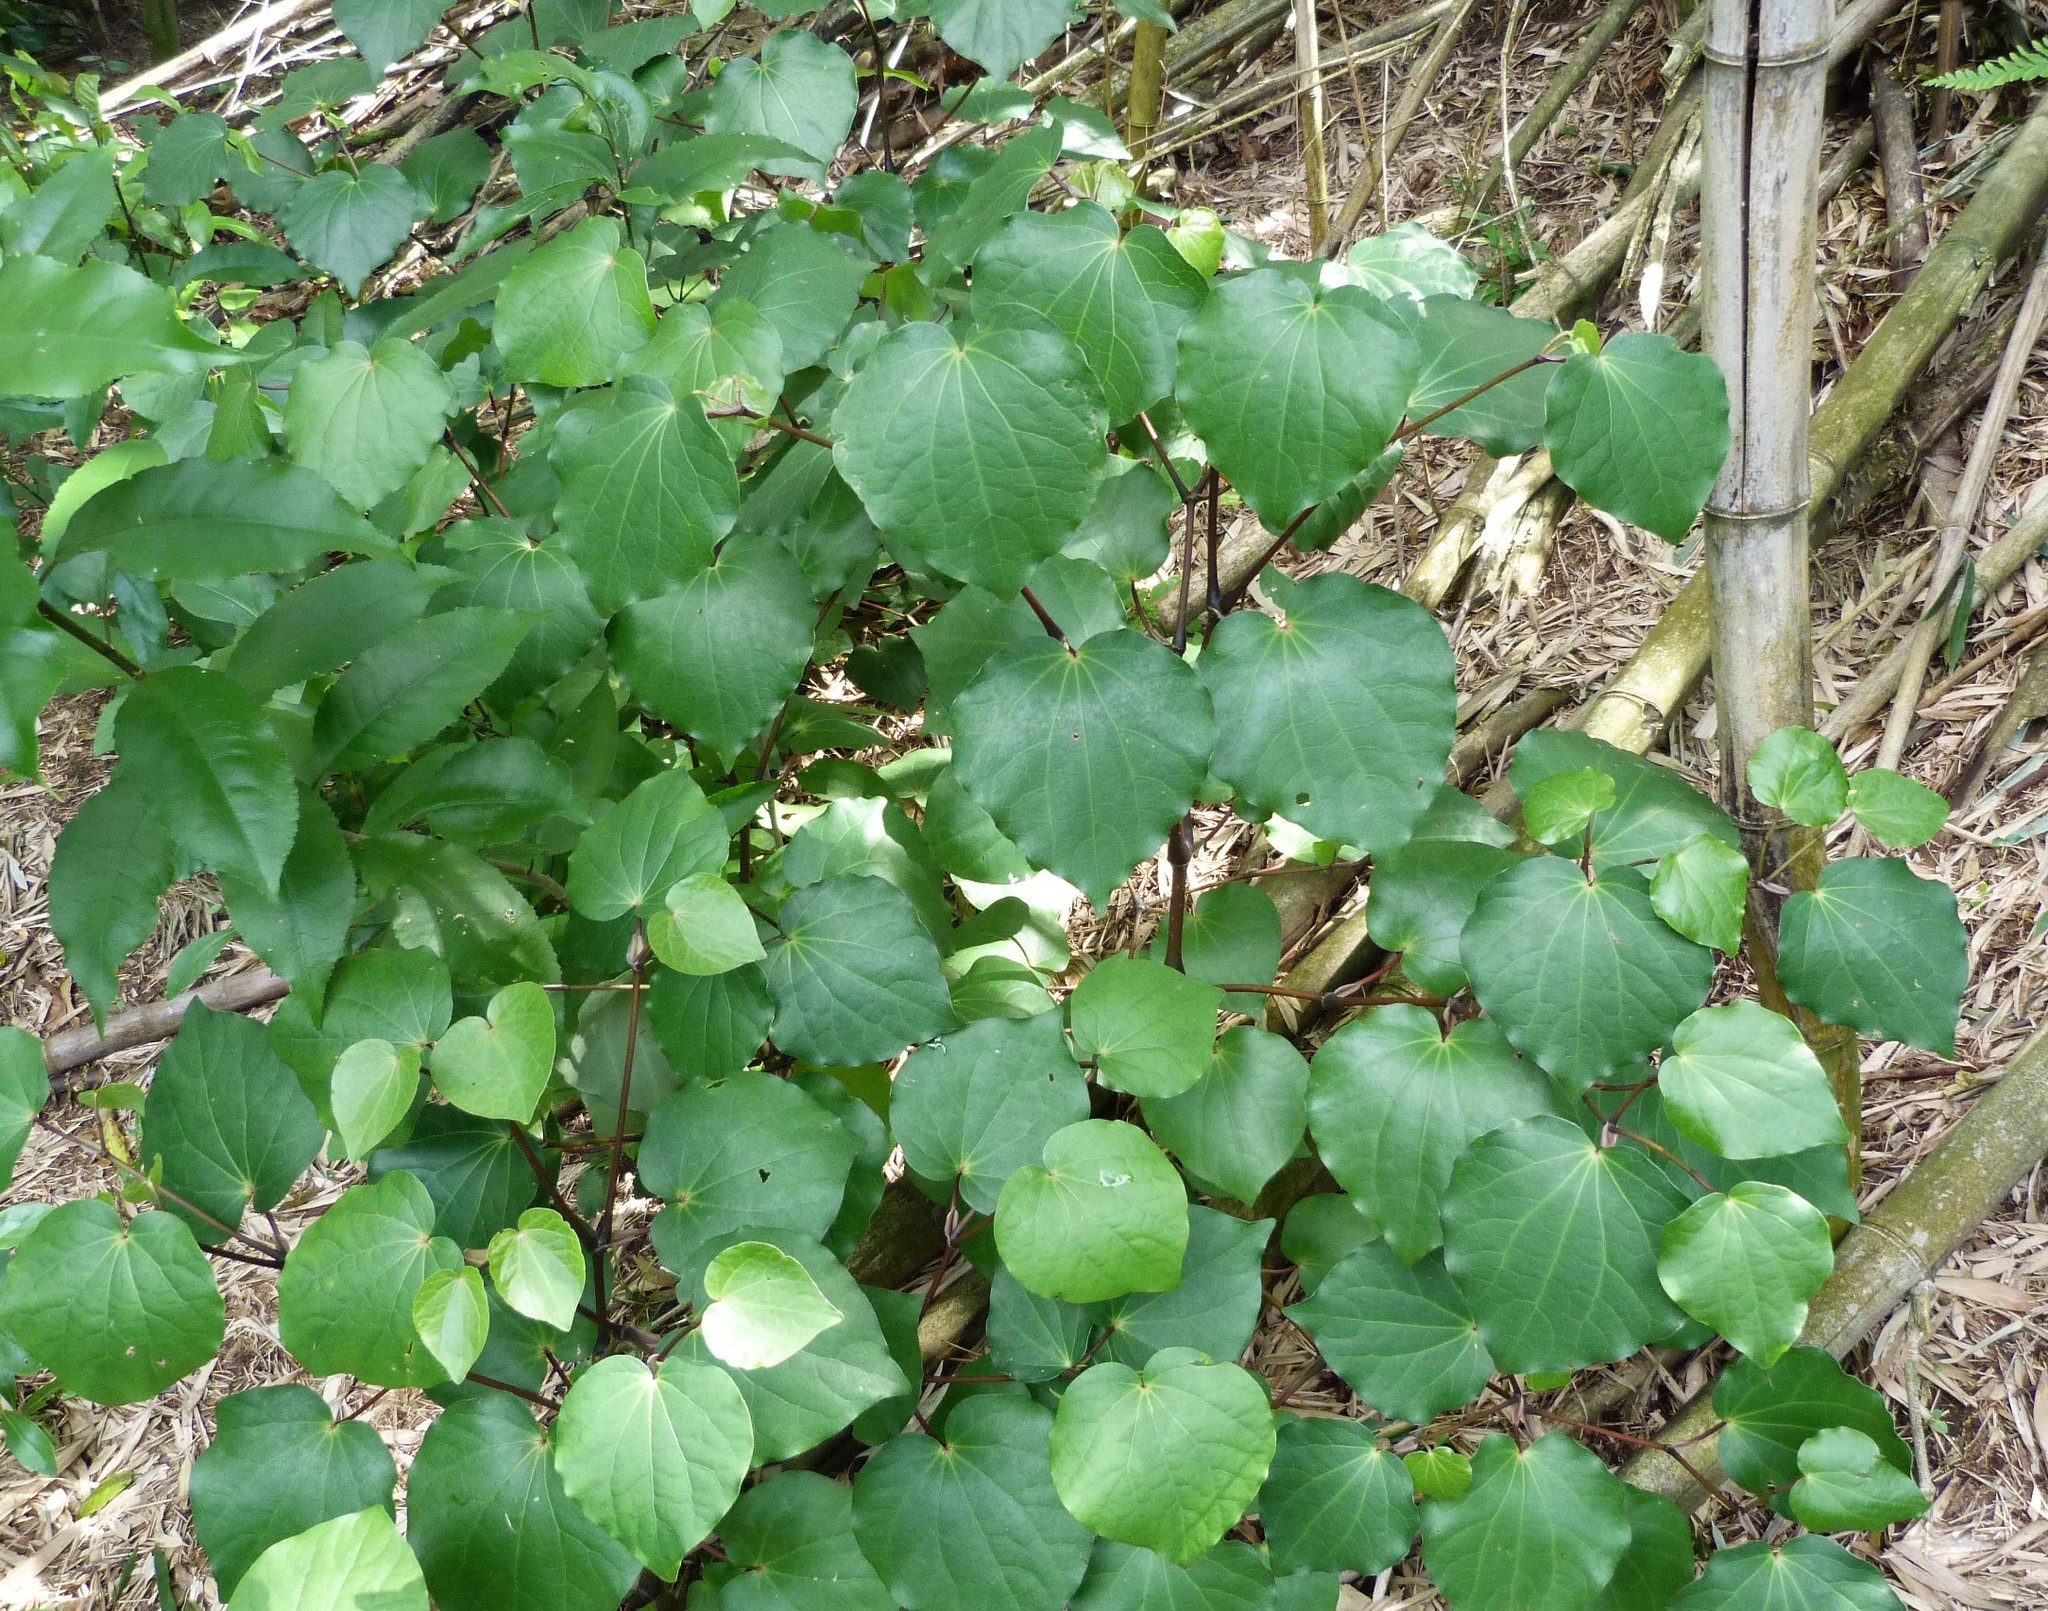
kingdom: Plantae
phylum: Tracheophyta
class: Magnoliopsida
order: Piperales
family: Piperaceae
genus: Macropiper
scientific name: Macropiper excelsum
